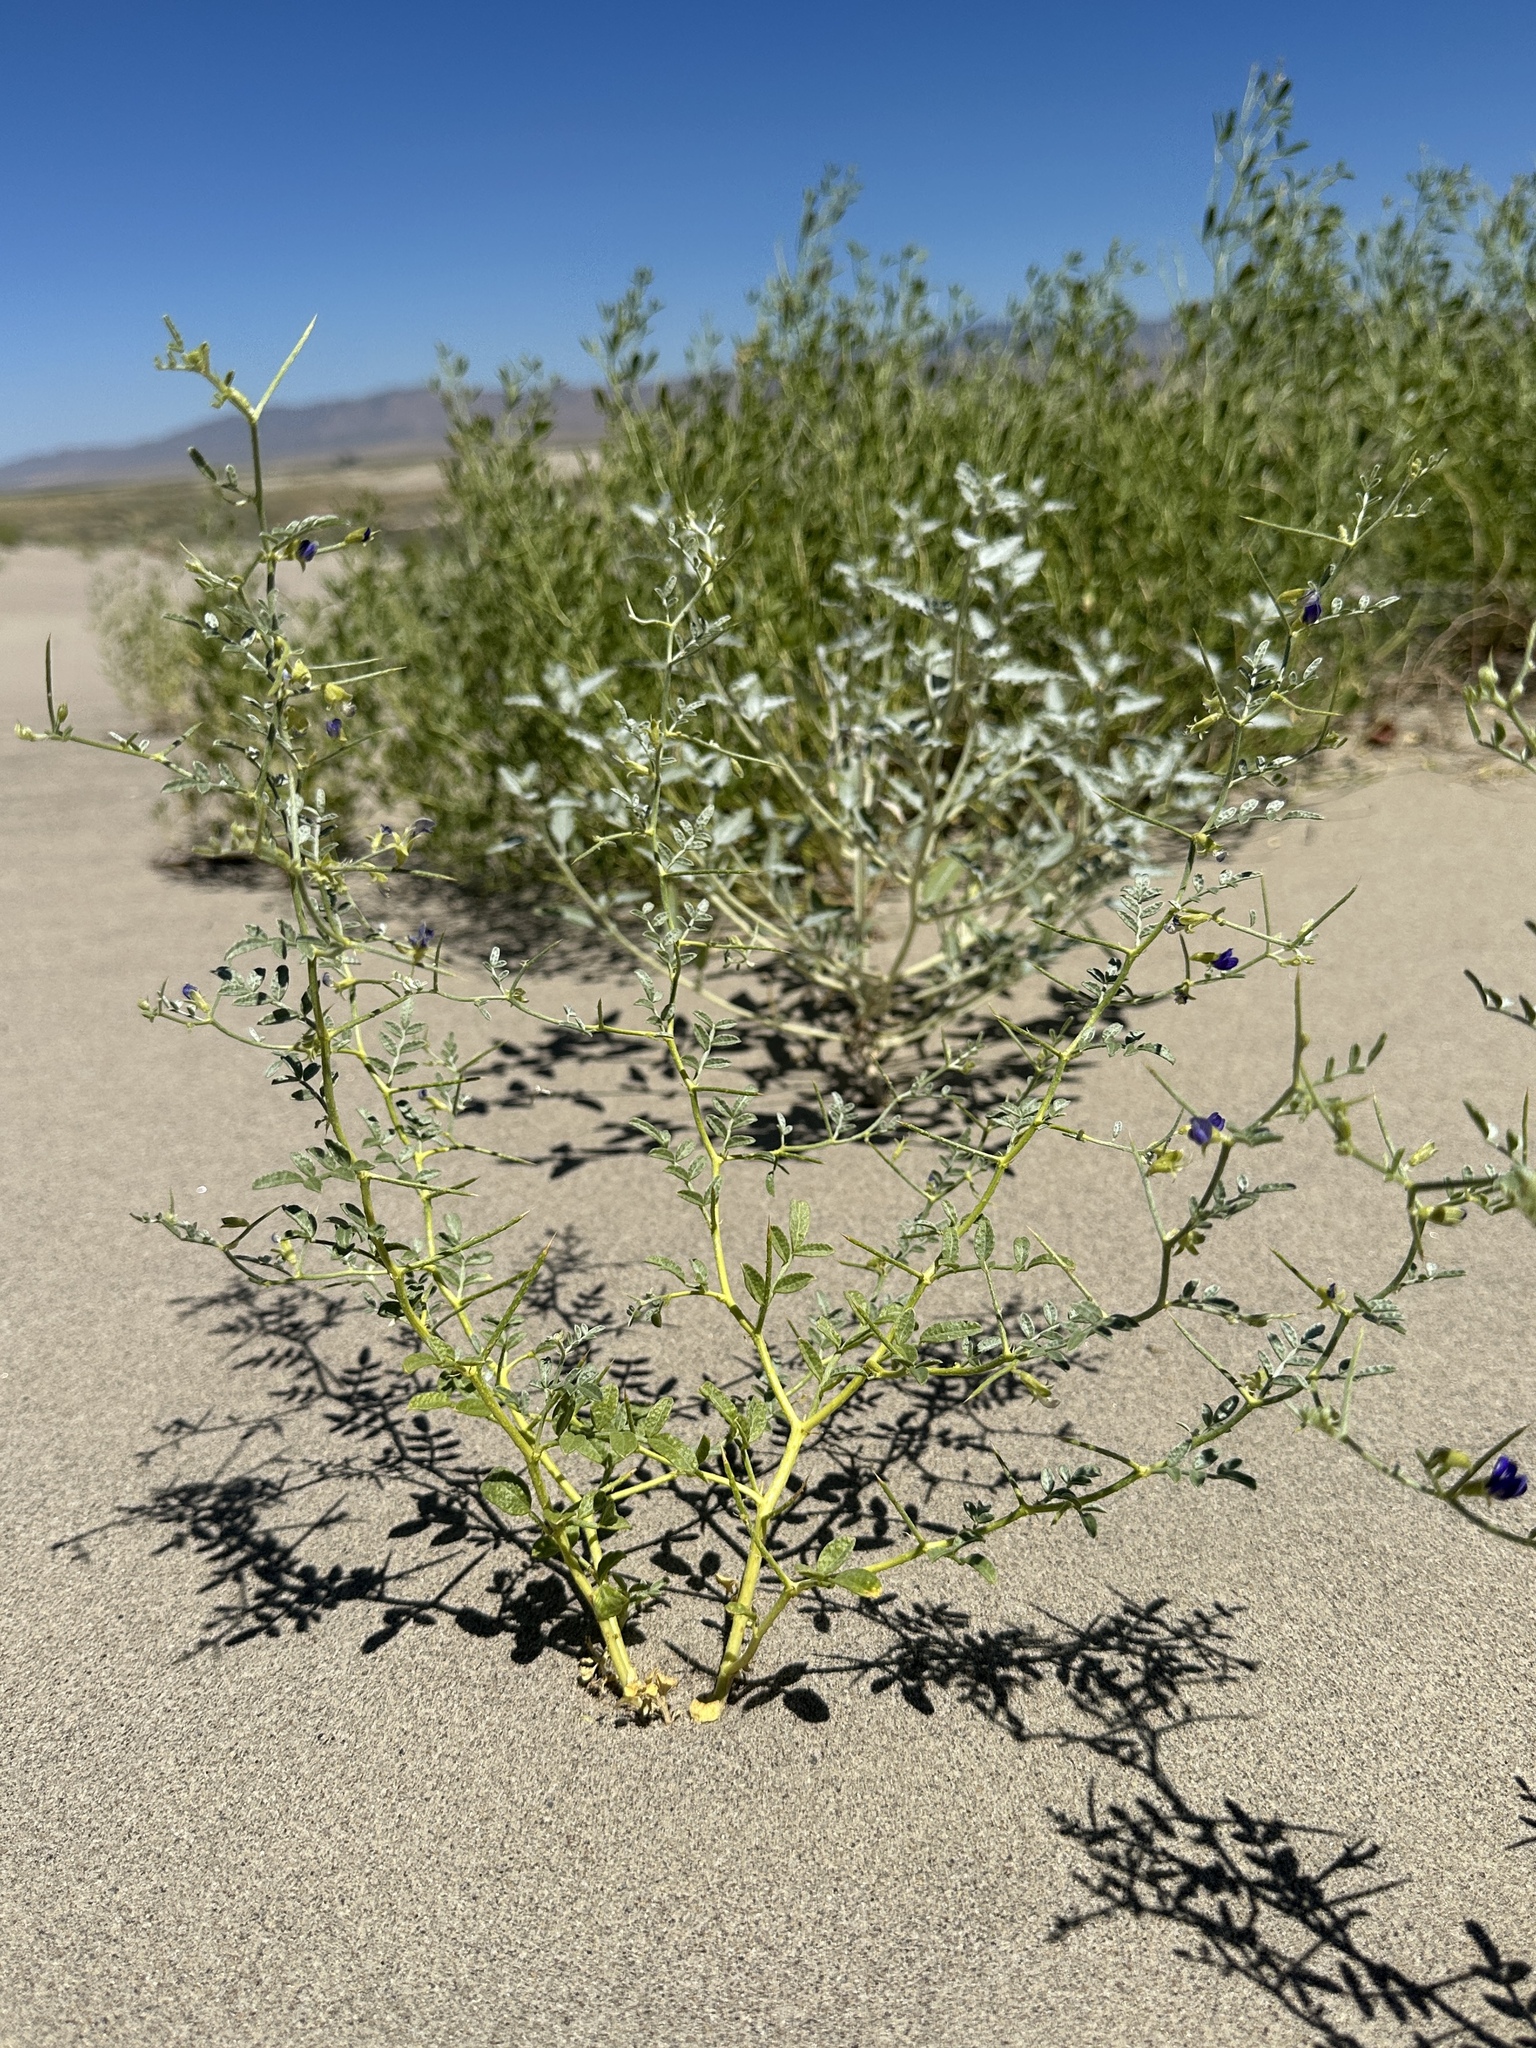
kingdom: Plantae
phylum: Tracheophyta
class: Magnoliopsida
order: Fabales
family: Fabaceae
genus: Psorothamnus
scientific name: Psorothamnus kingii
